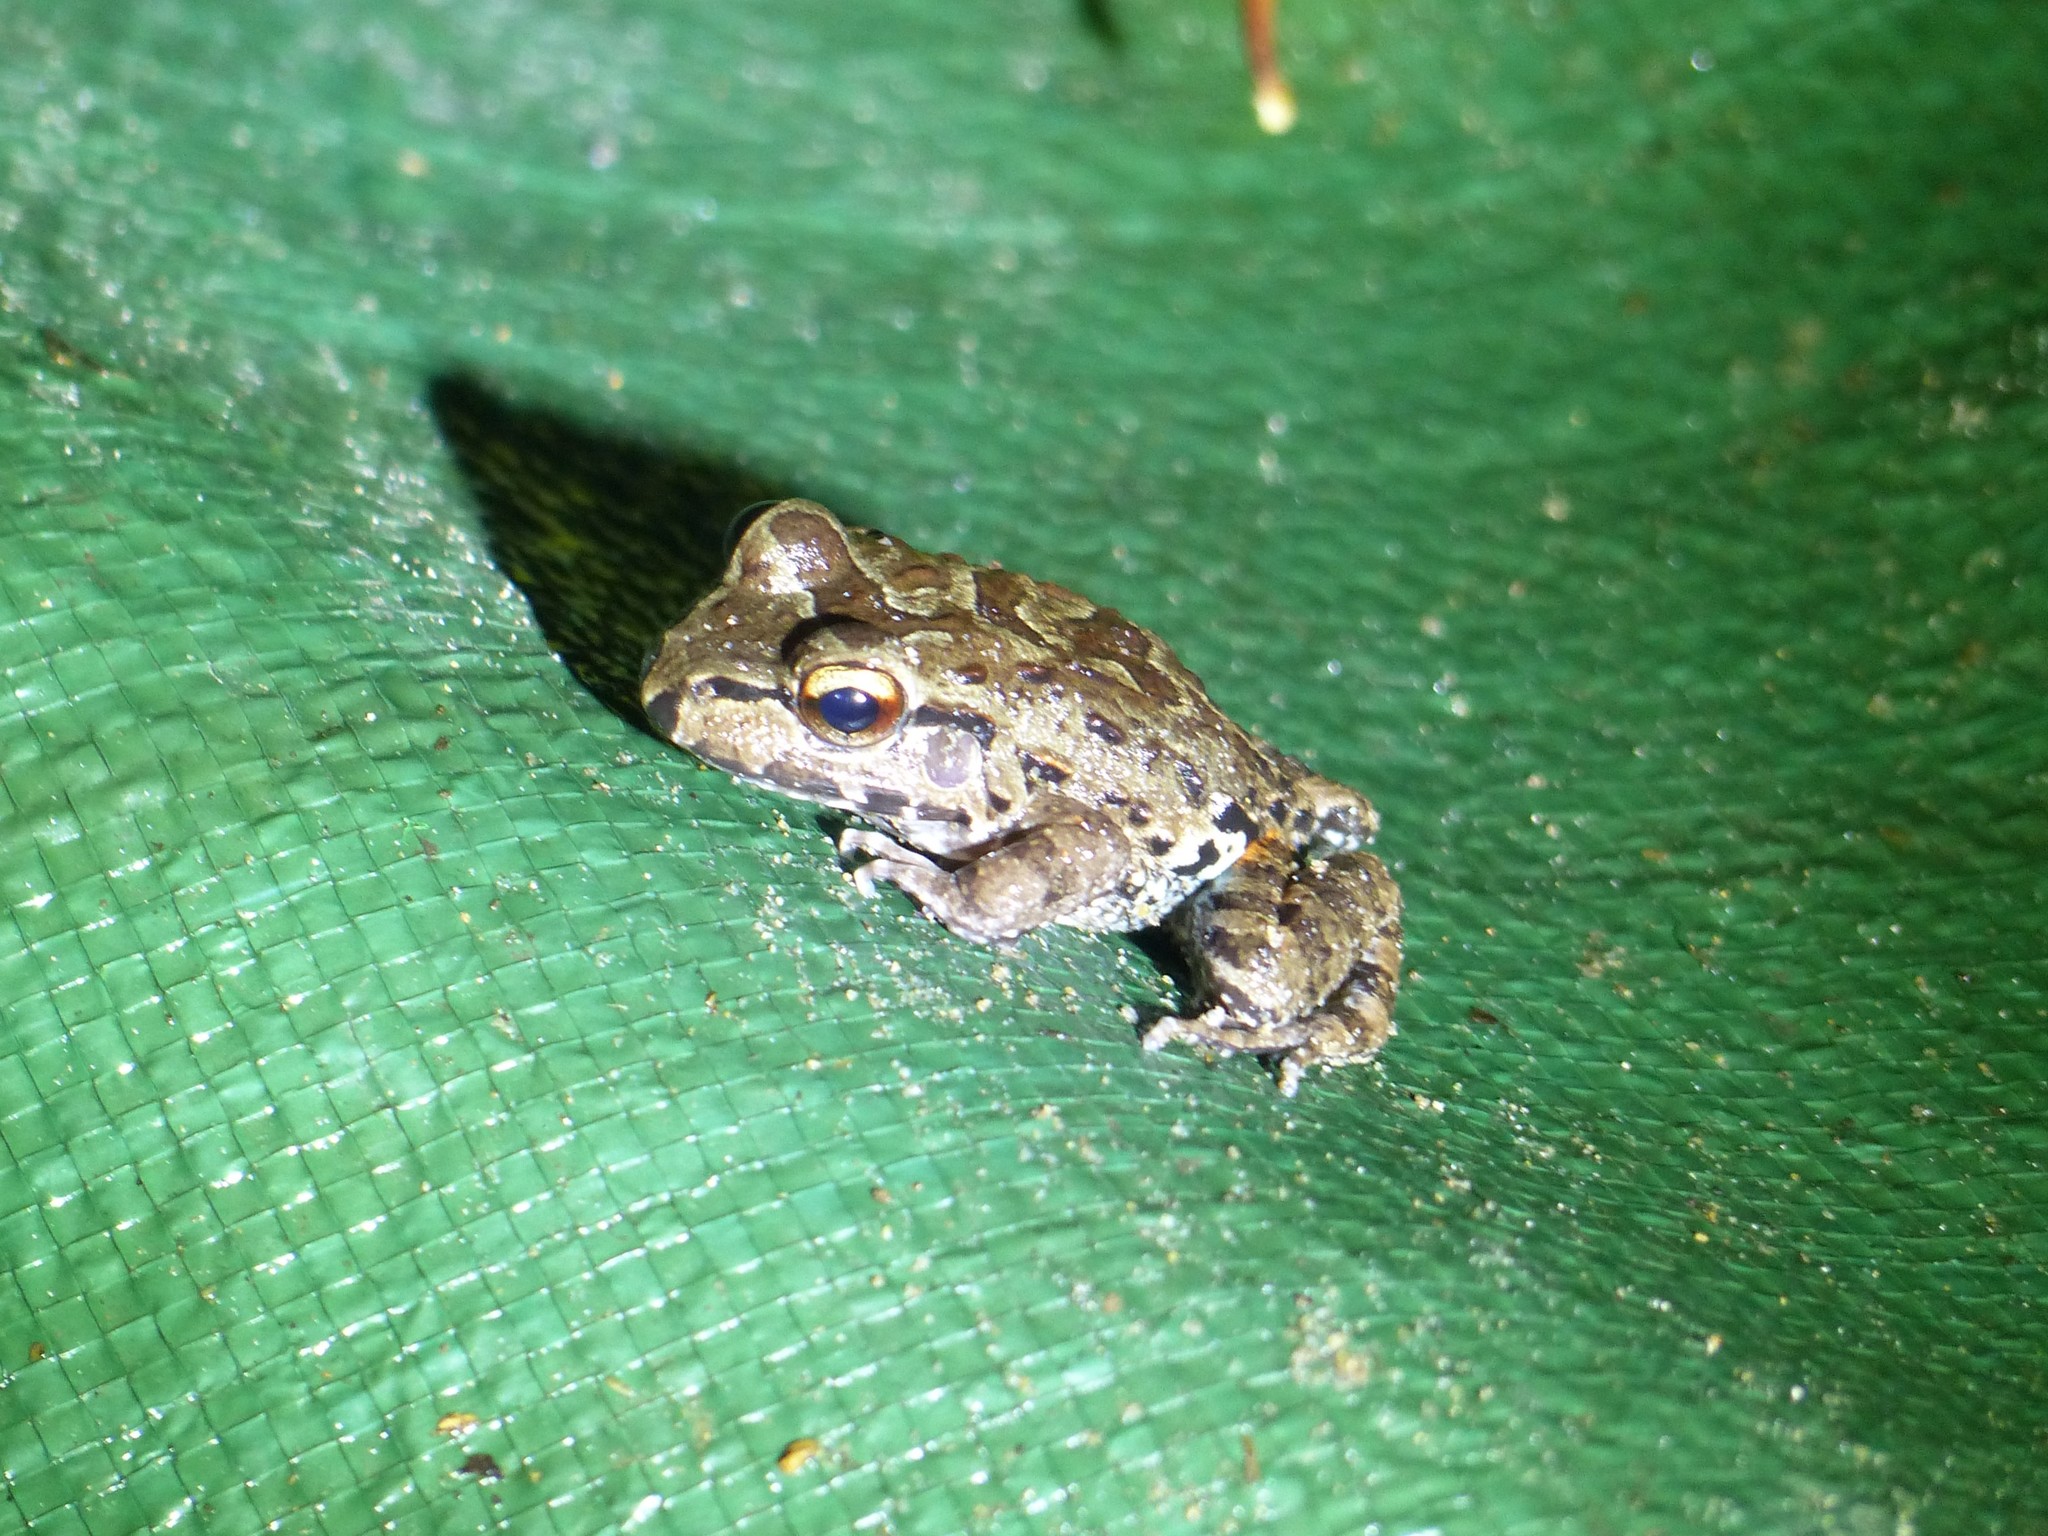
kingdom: Animalia
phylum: Chordata
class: Amphibia
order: Anura
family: Leptodactylidae
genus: Leptodactylus
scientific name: Leptodactylus knudseni
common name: Knudsen's frog
